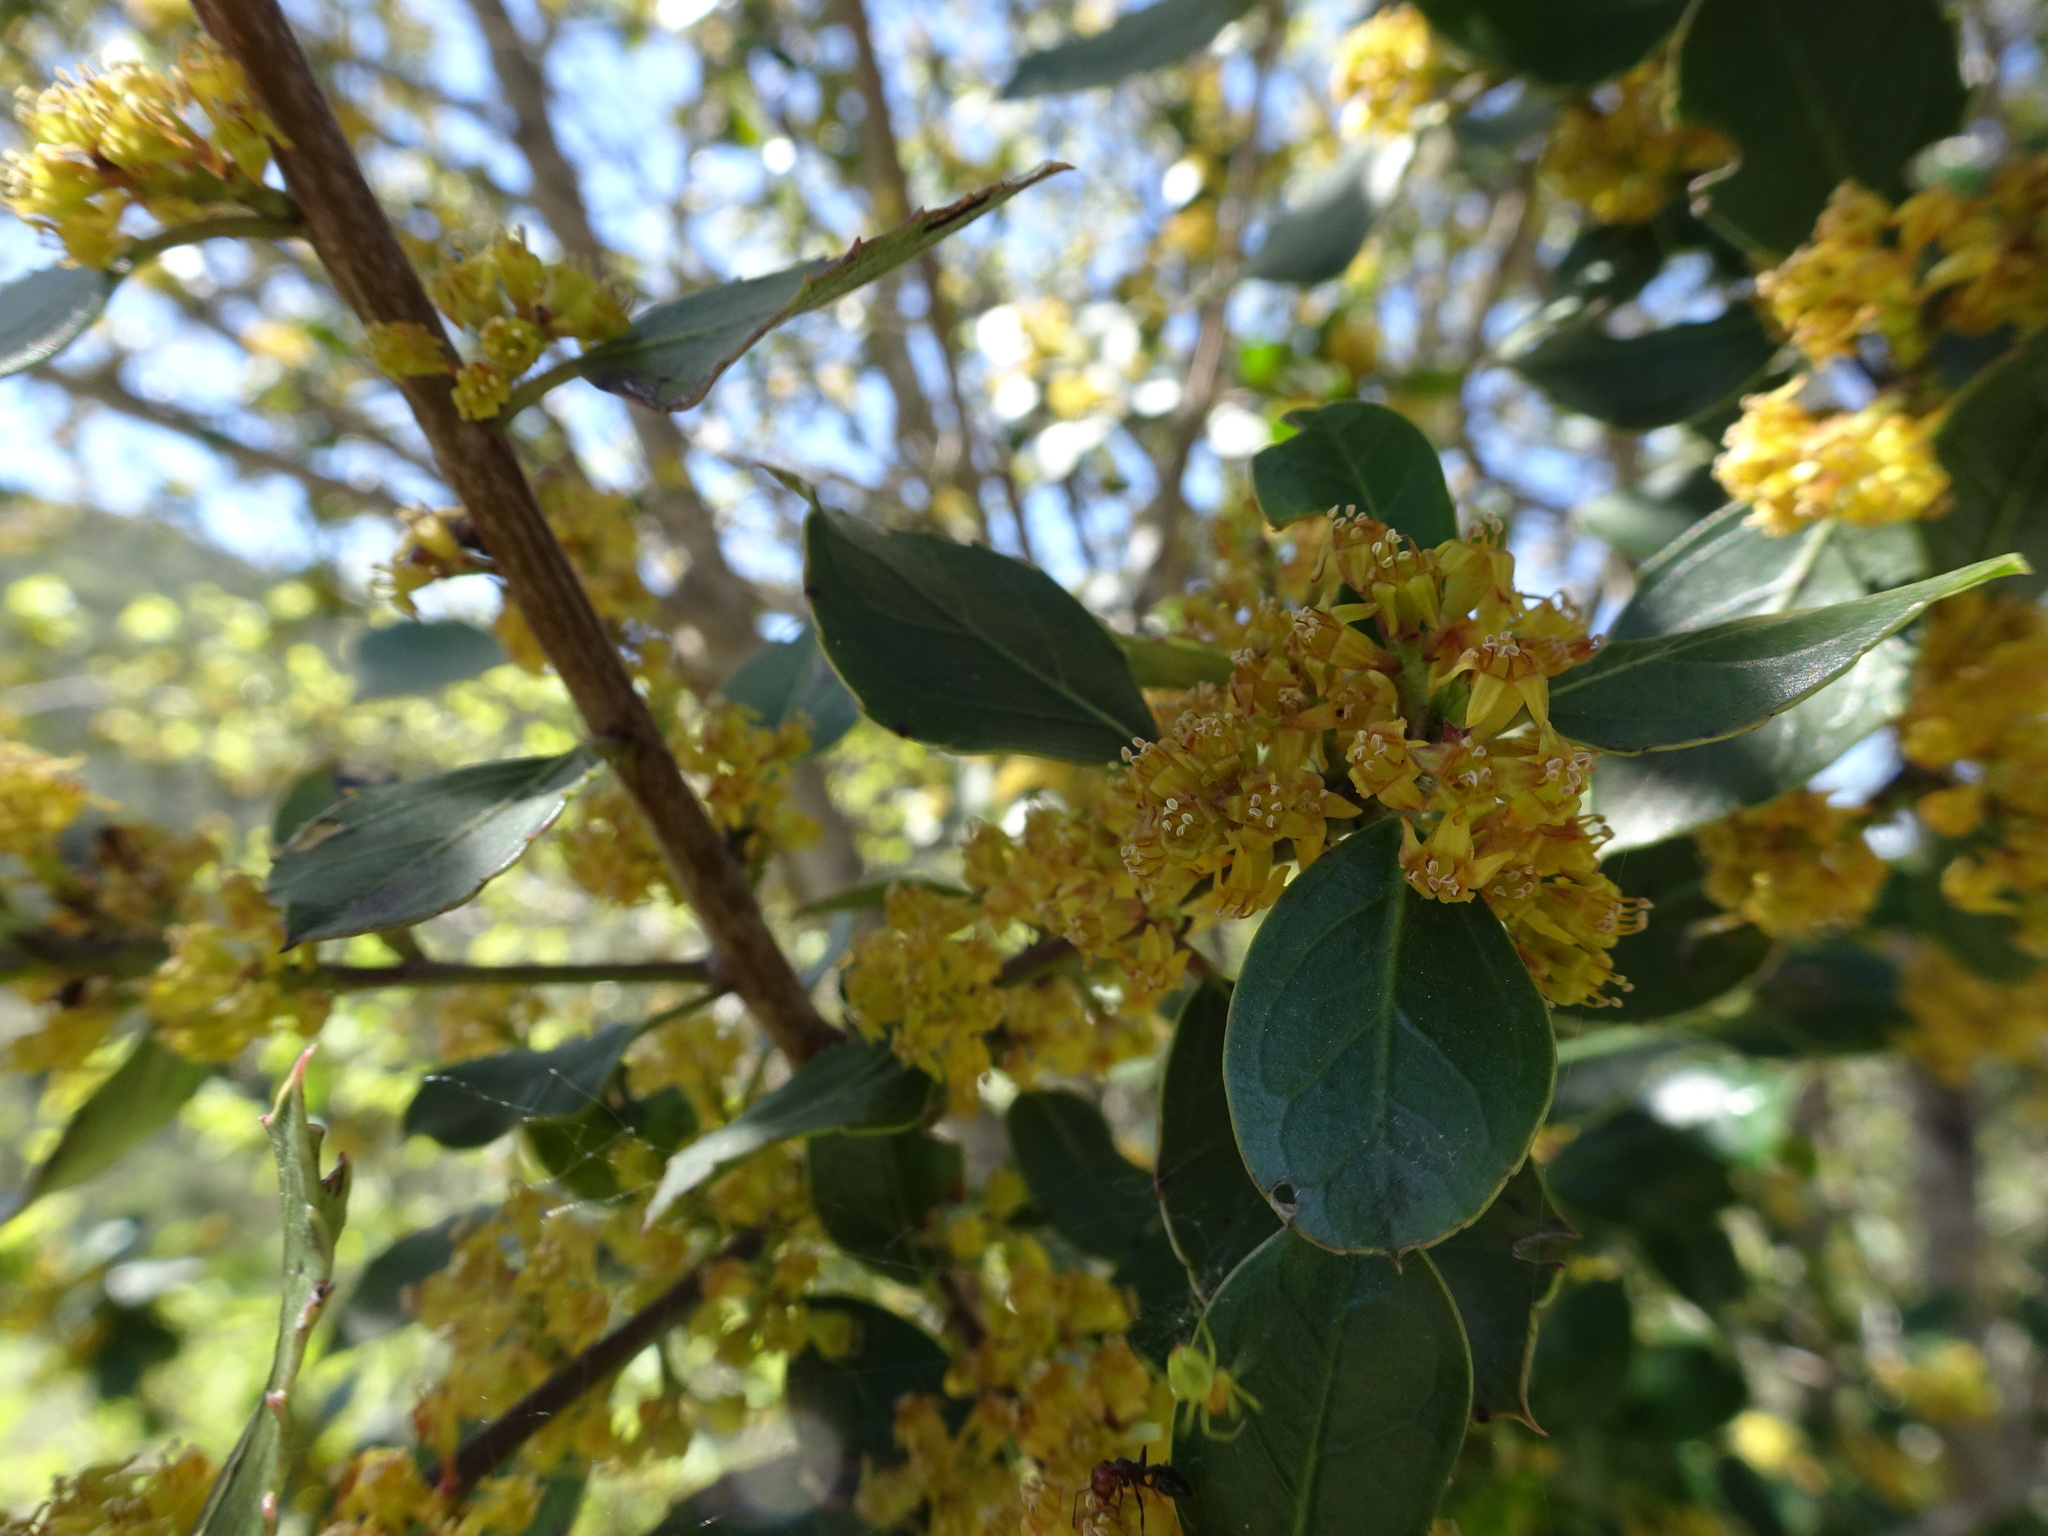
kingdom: Plantae
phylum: Tracheophyta
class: Magnoliopsida
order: Rosales
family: Rhamnaceae
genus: Rhamnus
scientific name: Rhamnus alaternus
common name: Mediterranean buckthorn
